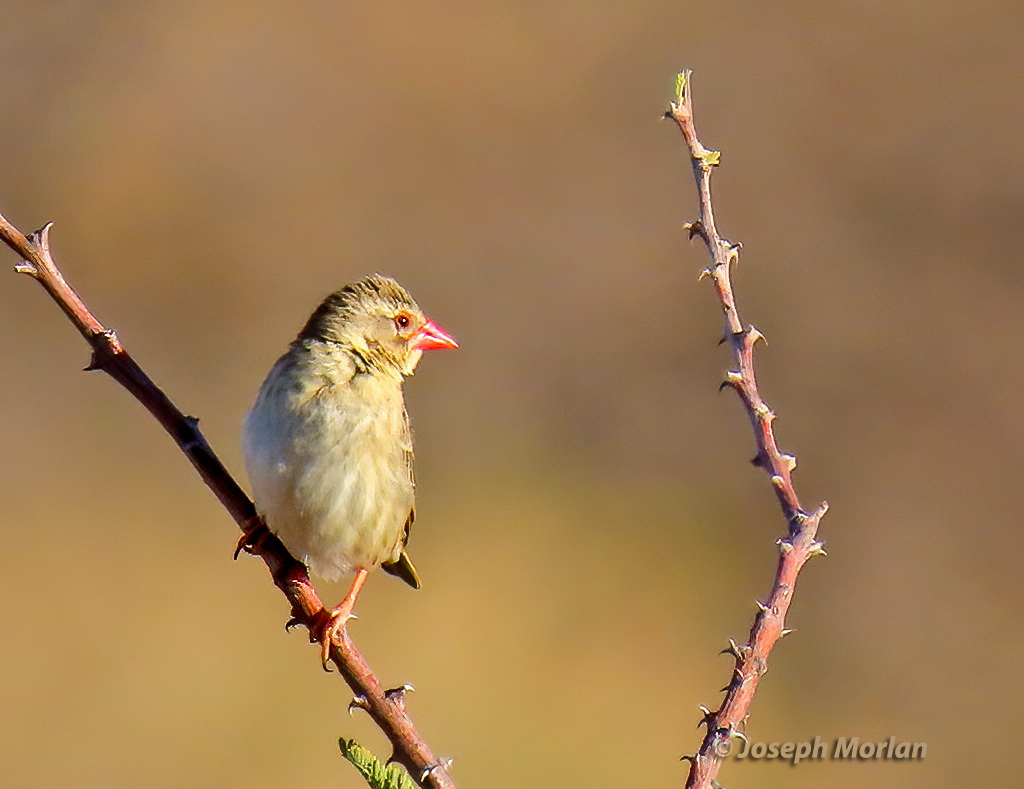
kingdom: Animalia
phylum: Chordata
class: Aves
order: Passeriformes
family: Ploceidae
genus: Quelea
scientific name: Quelea quelea
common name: Red-billed quelea
